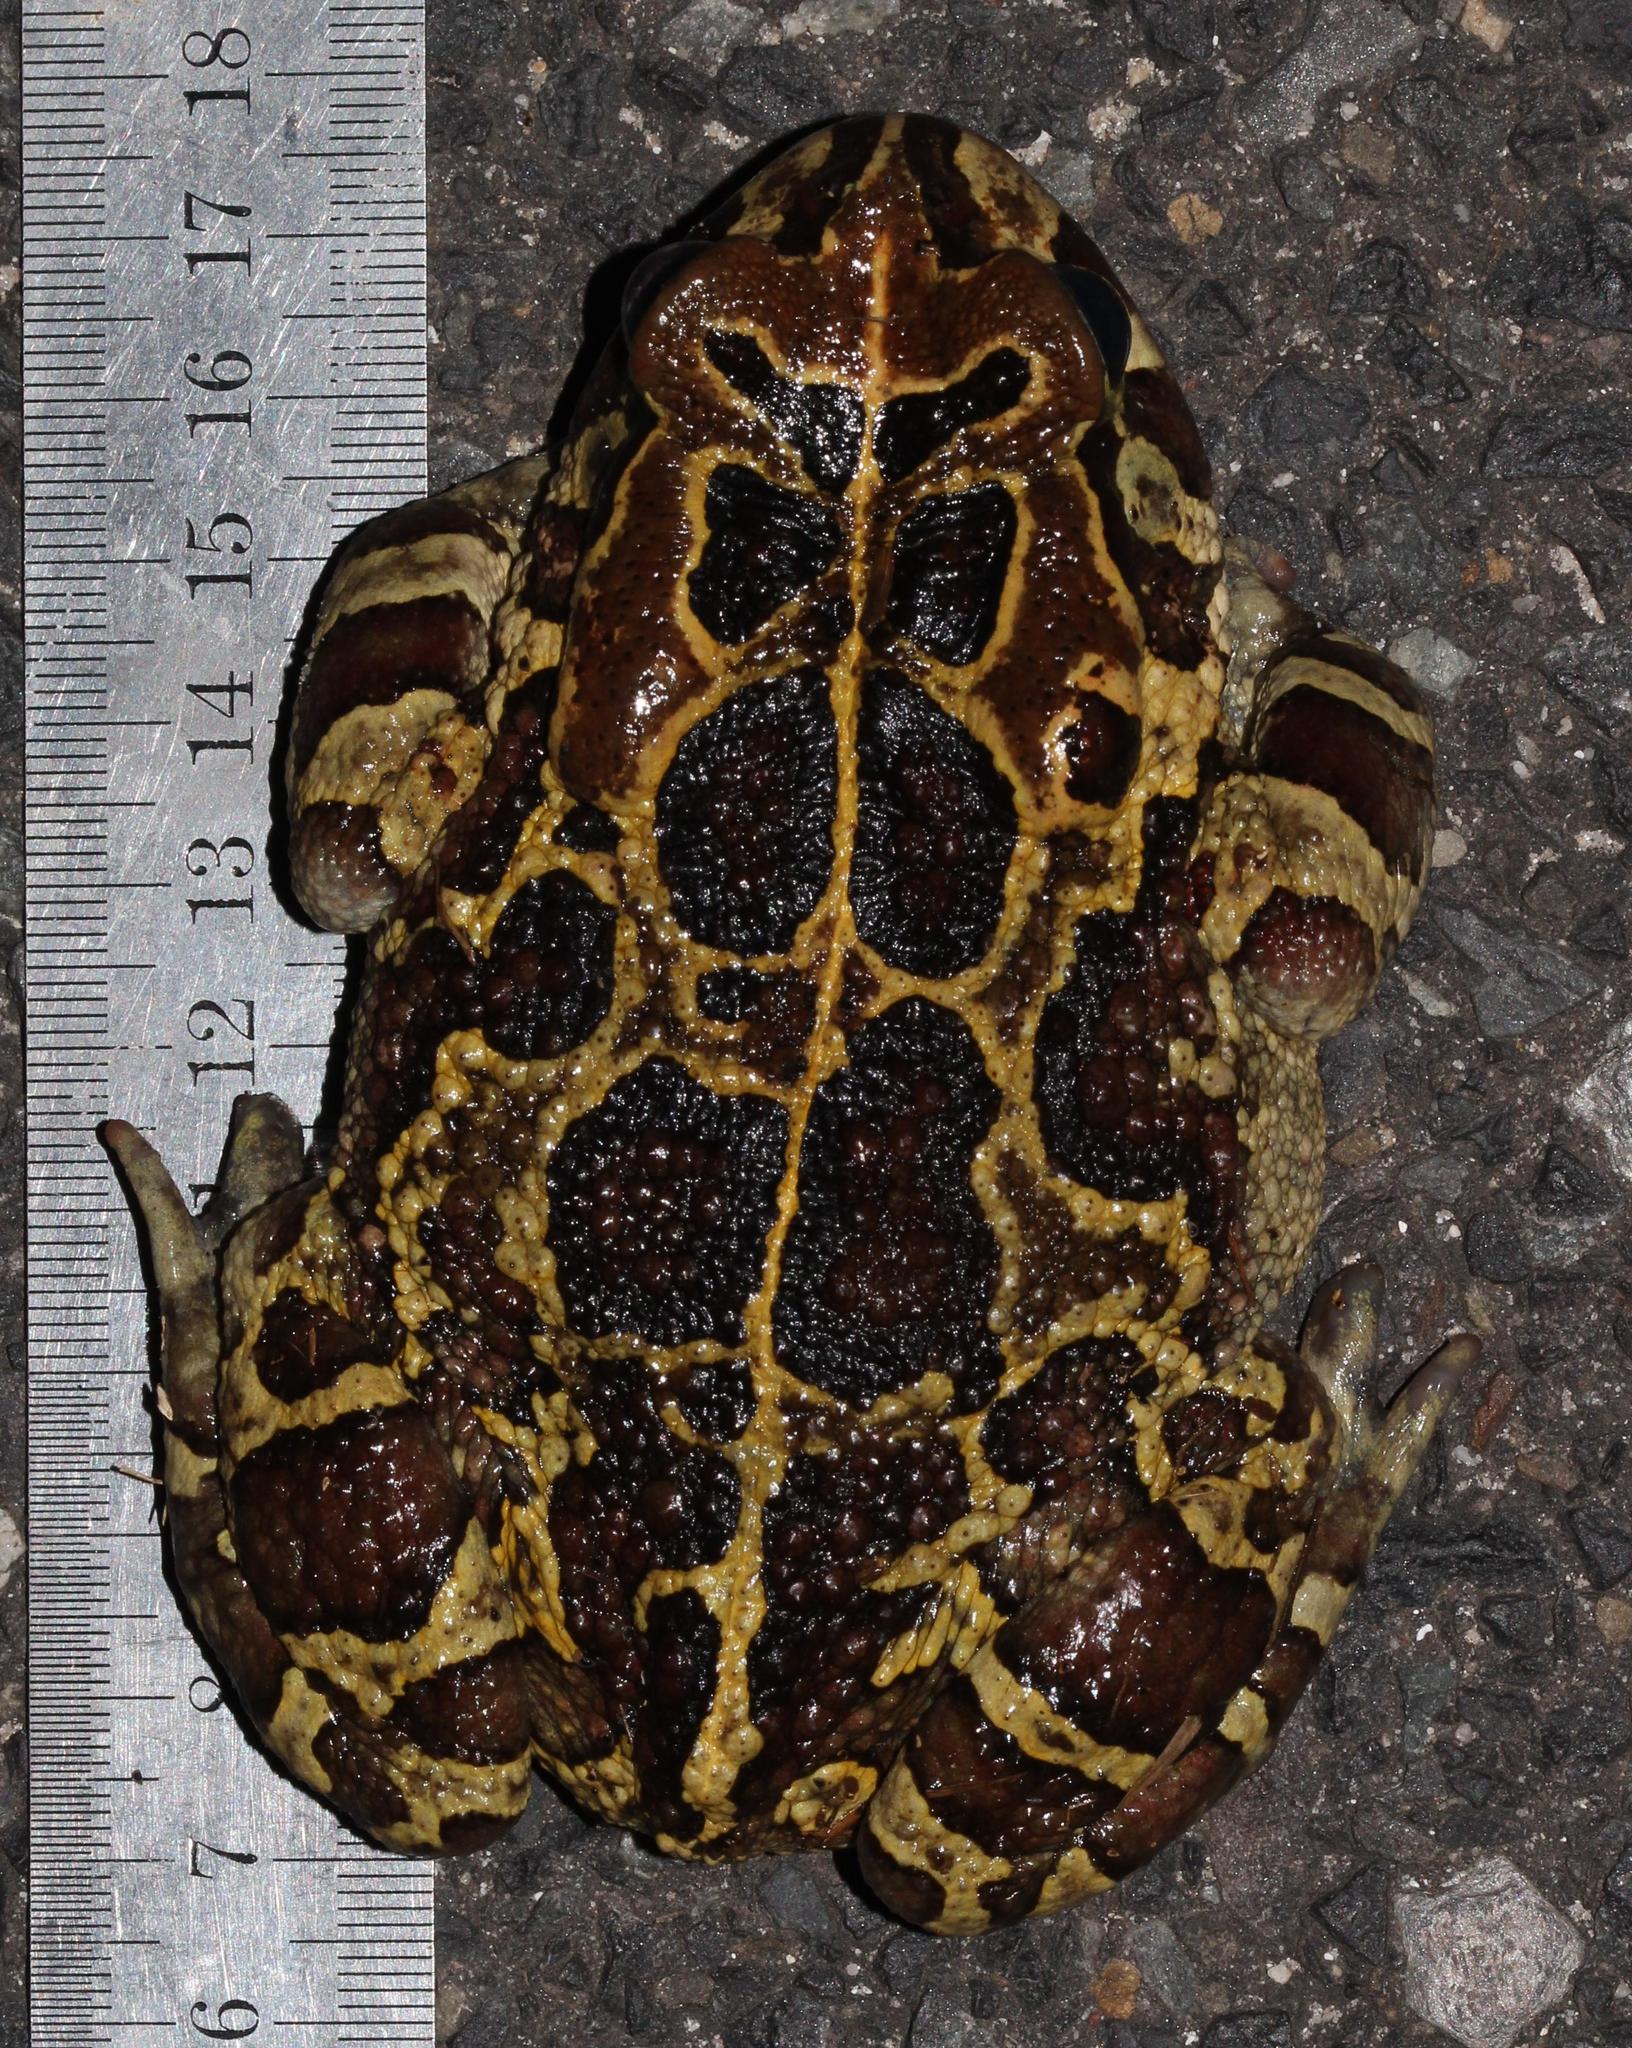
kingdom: Animalia
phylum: Chordata
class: Amphibia
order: Anura
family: Bufonidae
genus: Sclerophrys
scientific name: Sclerophrys pantherina
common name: Panther toad
